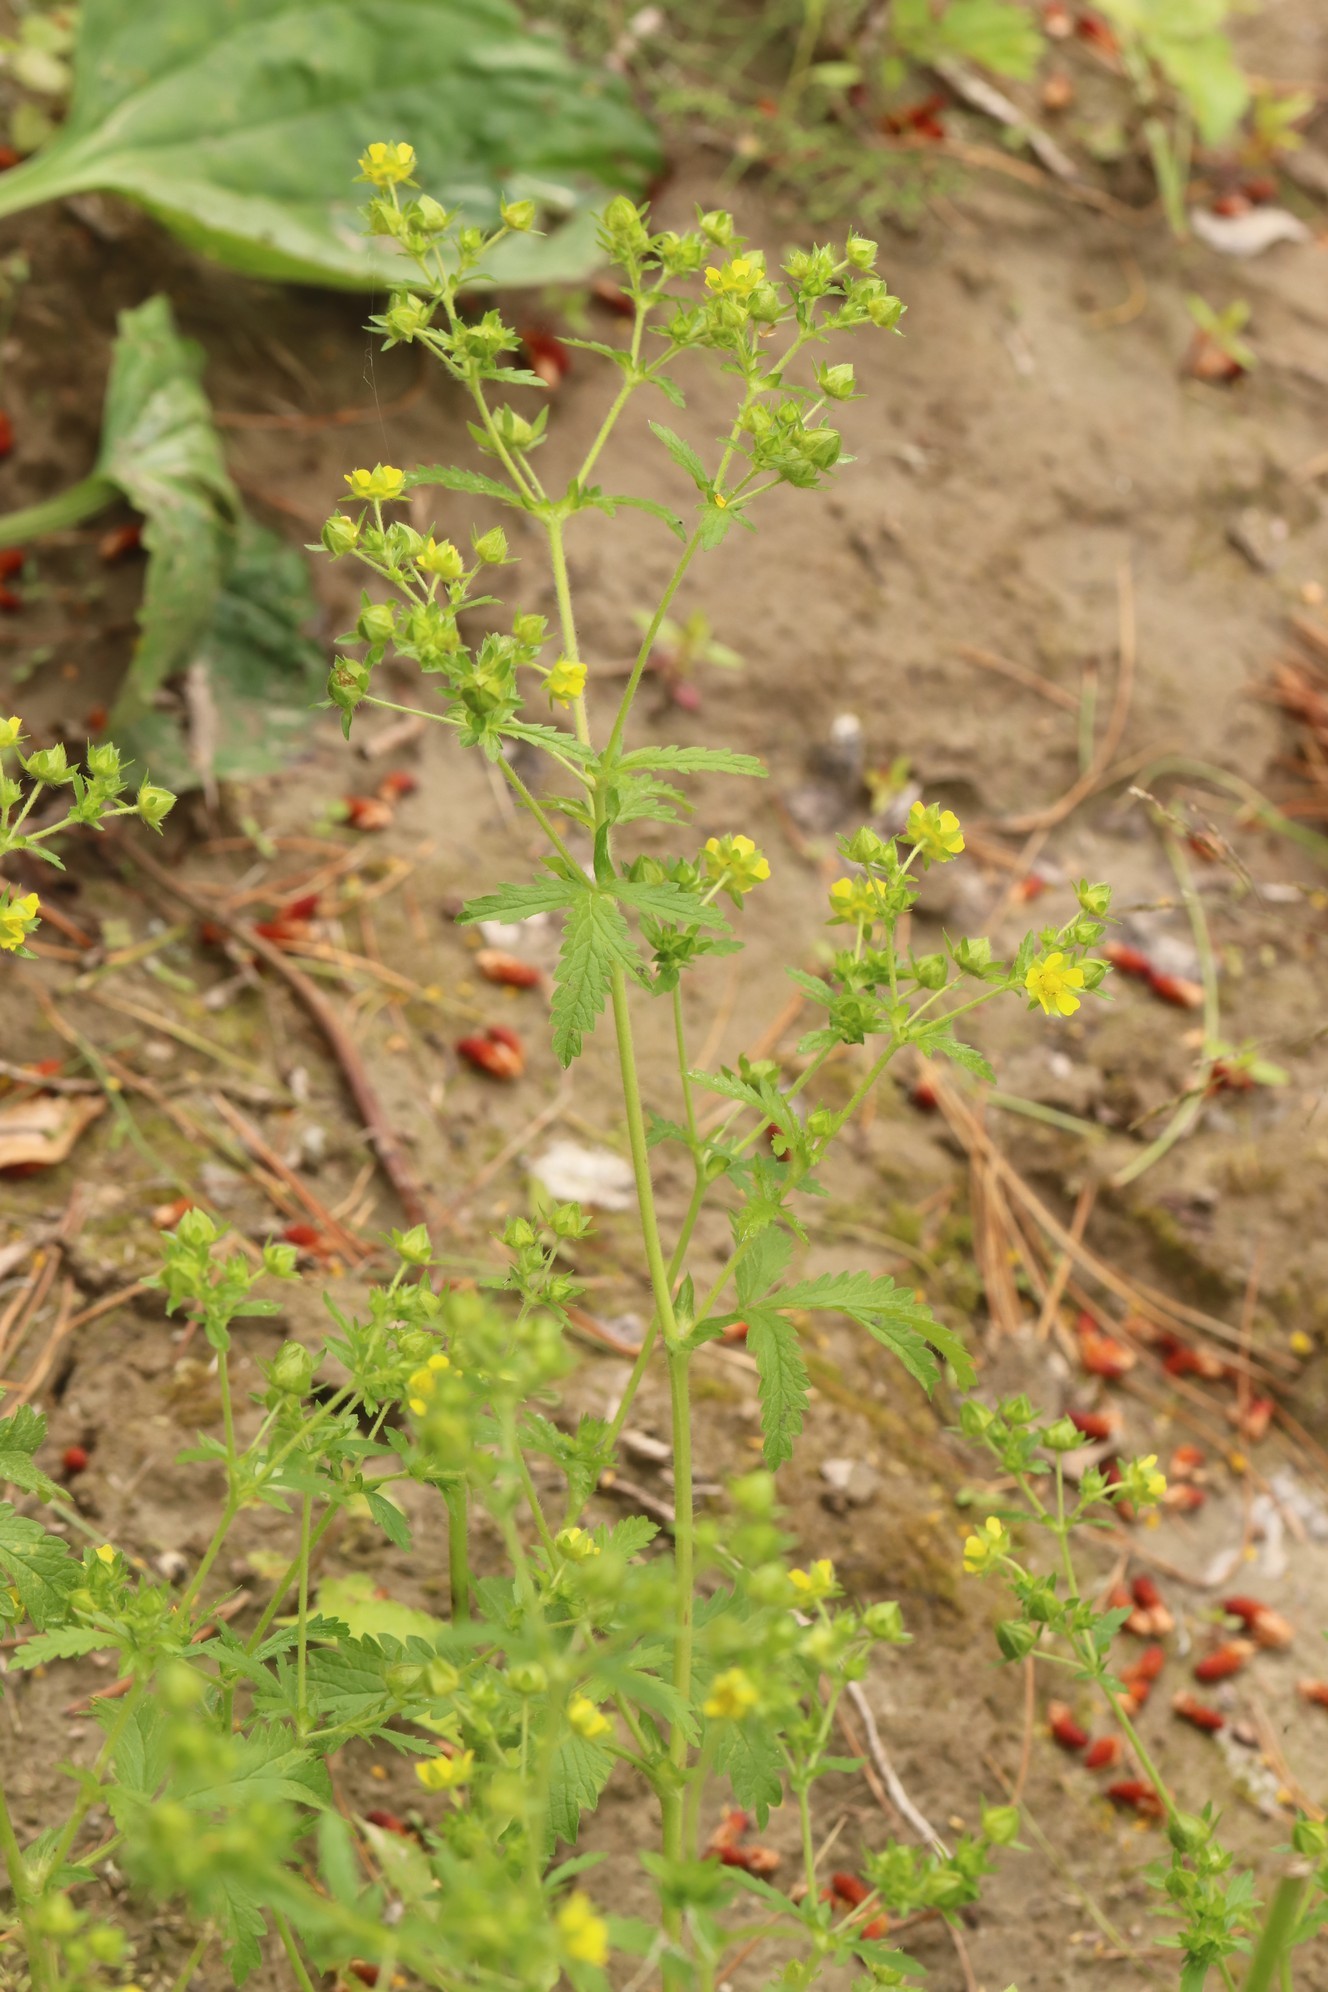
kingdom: Plantae
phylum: Tracheophyta
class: Magnoliopsida
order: Rosales
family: Rosaceae
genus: Potentilla
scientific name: Potentilla norvegica
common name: Ternate-leaved cinquefoil
